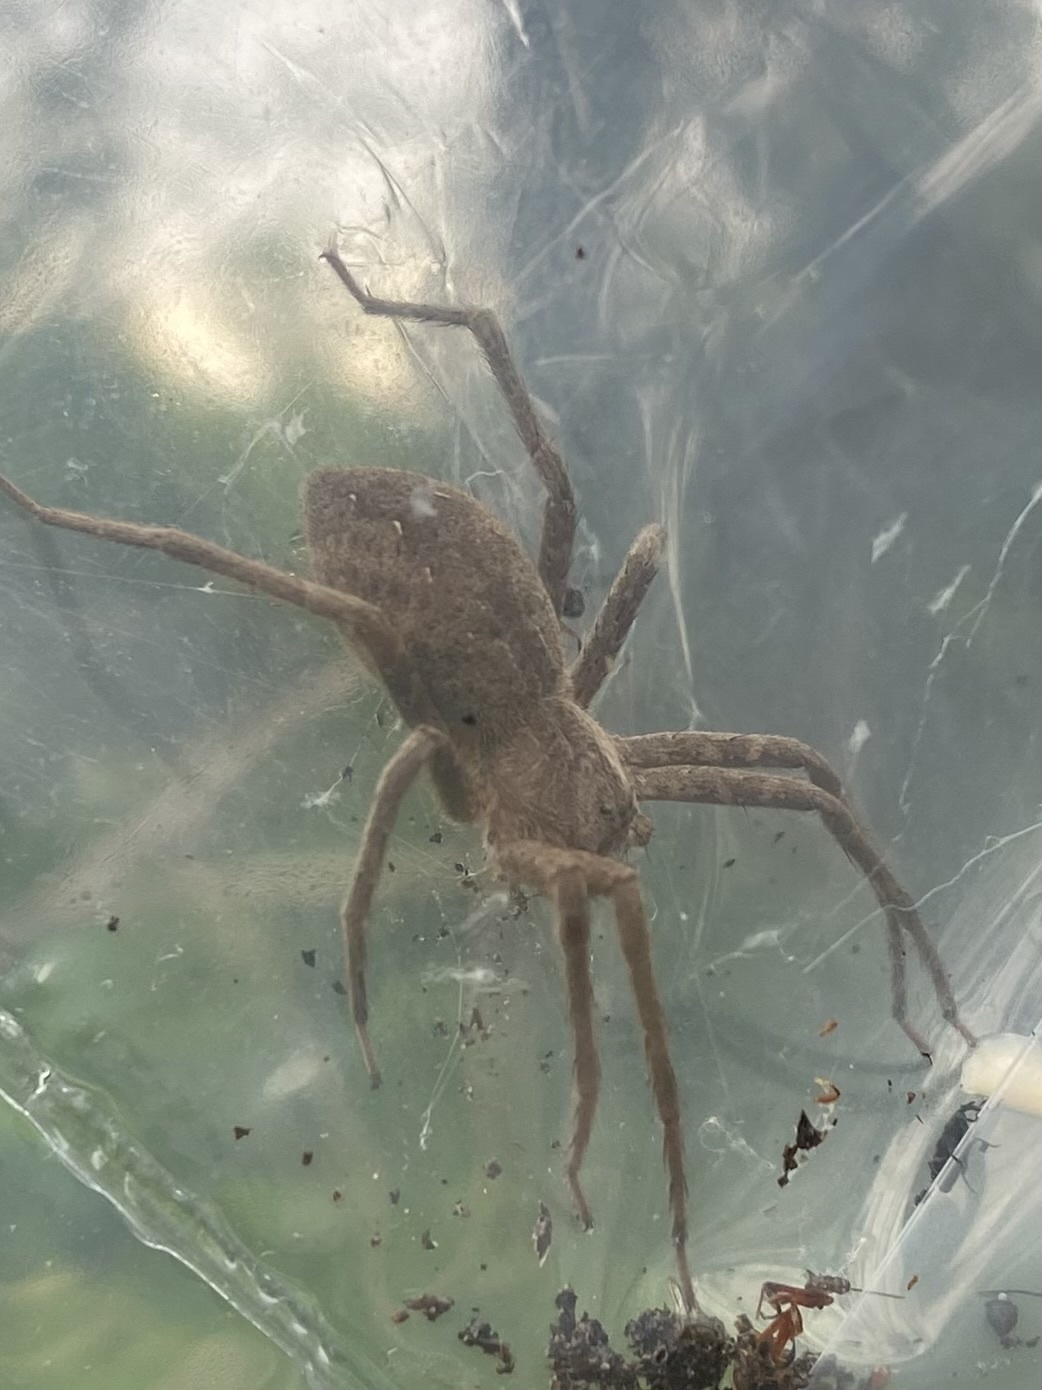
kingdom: Animalia
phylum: Arthropoda
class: Arachnida
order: Araneae
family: Pisauridae
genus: Pisaurina
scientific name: Pisaurina mira
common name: American nursery web spider
